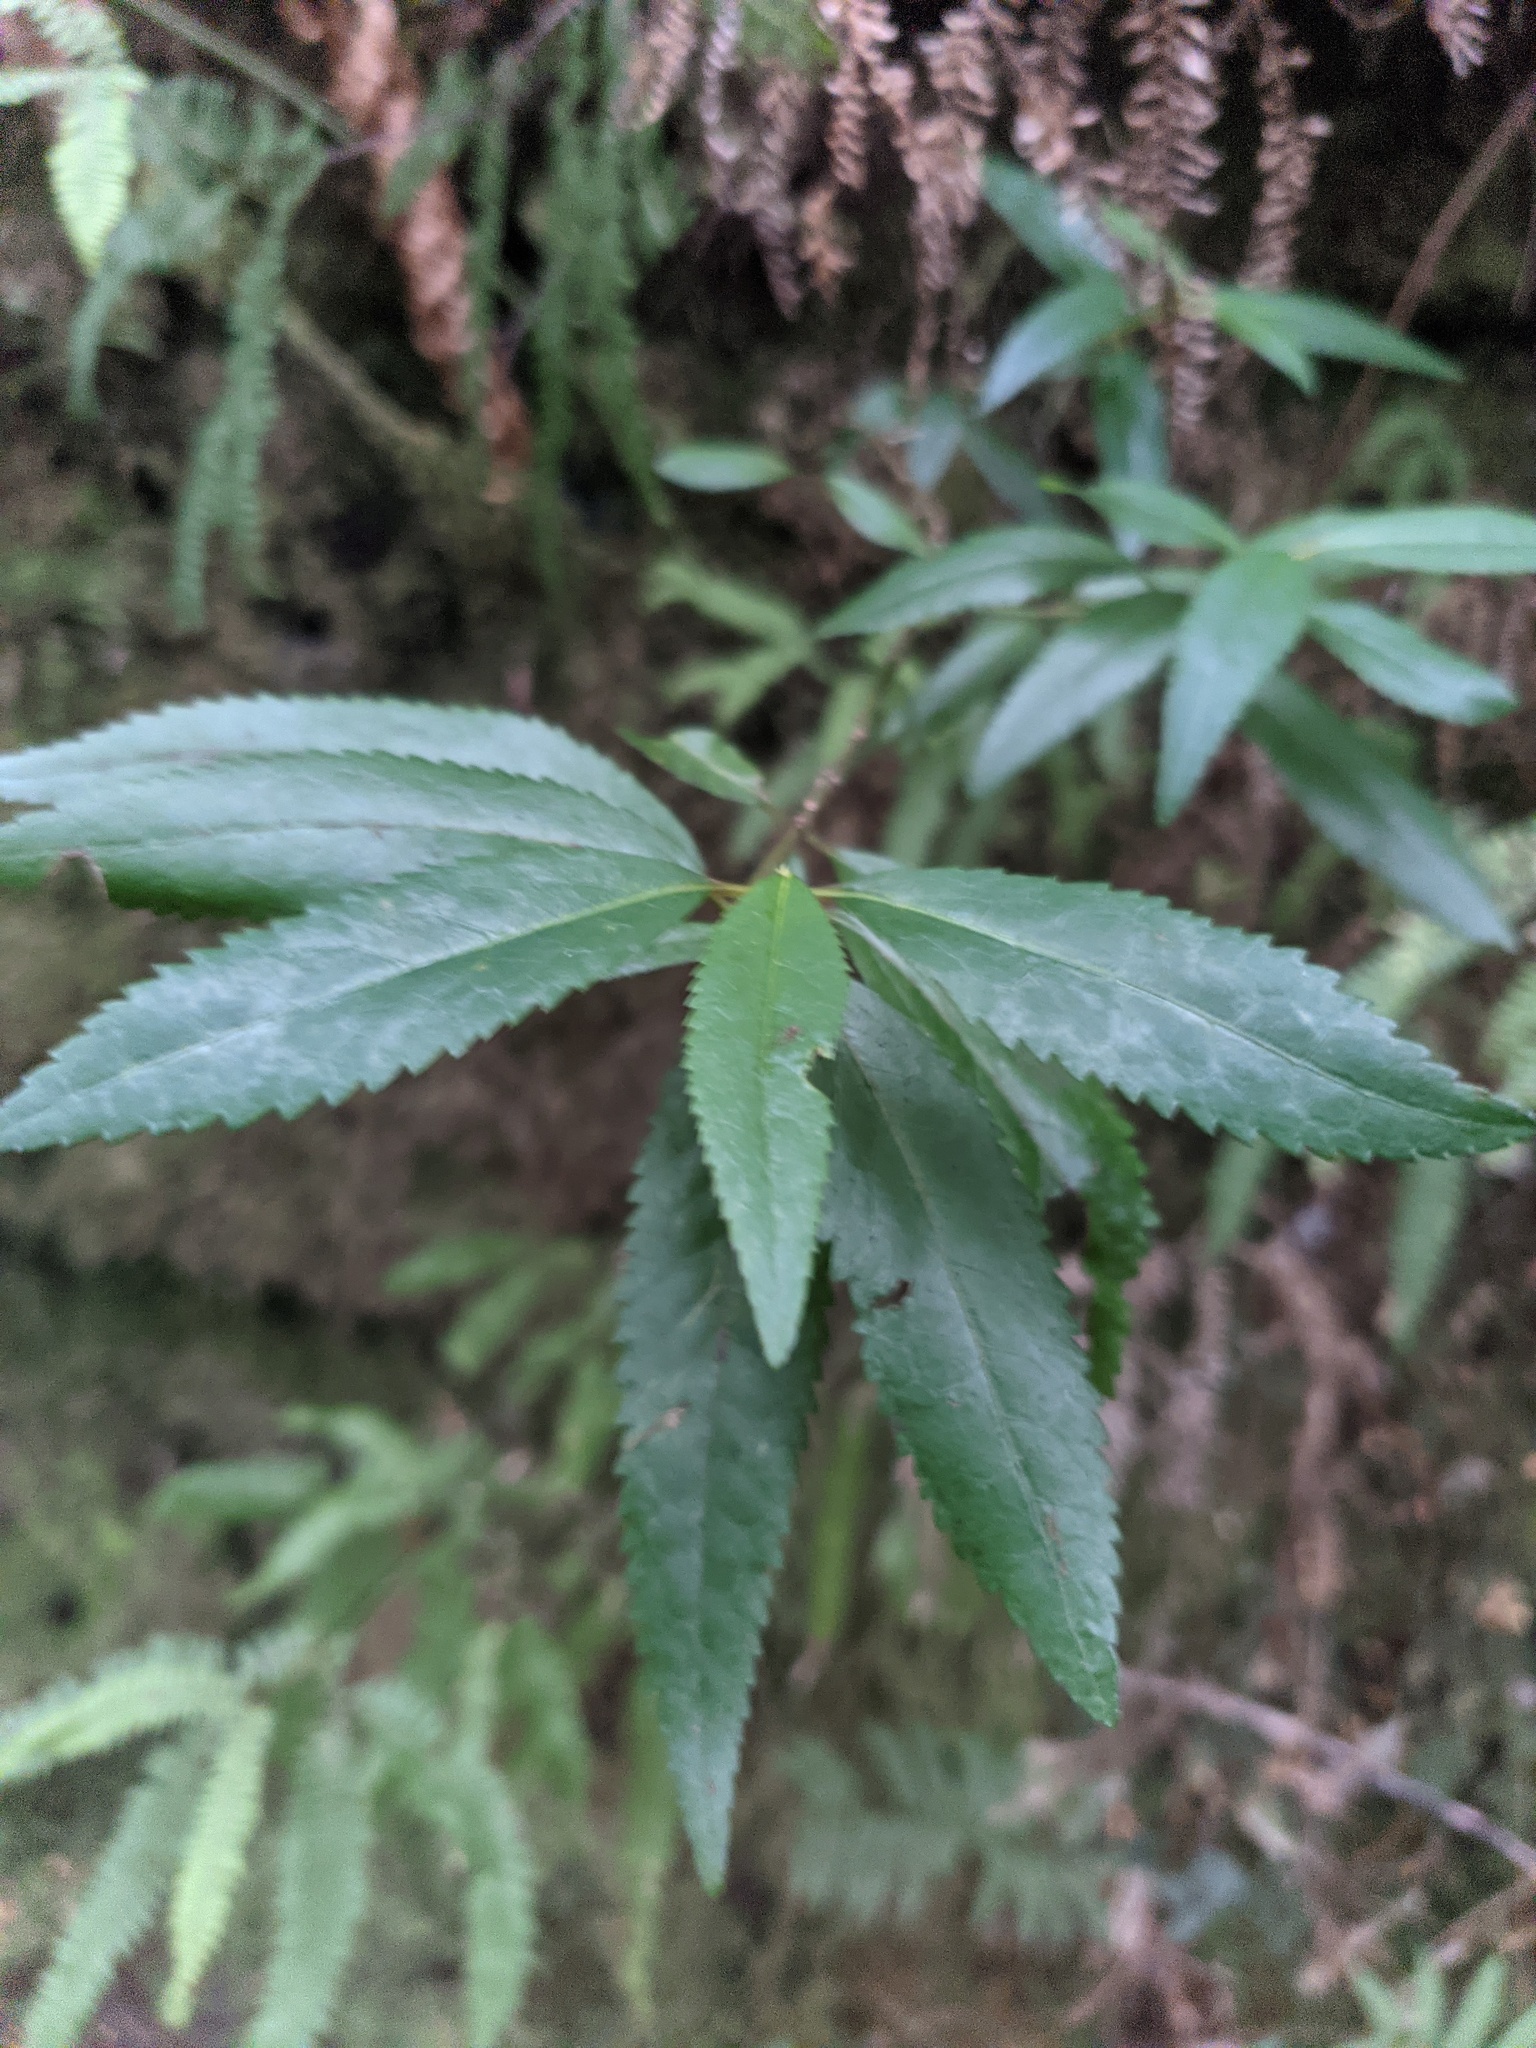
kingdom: Plantae
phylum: Tracheophyta
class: Magnoliopsida
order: Oxalidales
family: Elaeocarpaceae
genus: Aristotelia
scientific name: Aristotelia peduncularis
